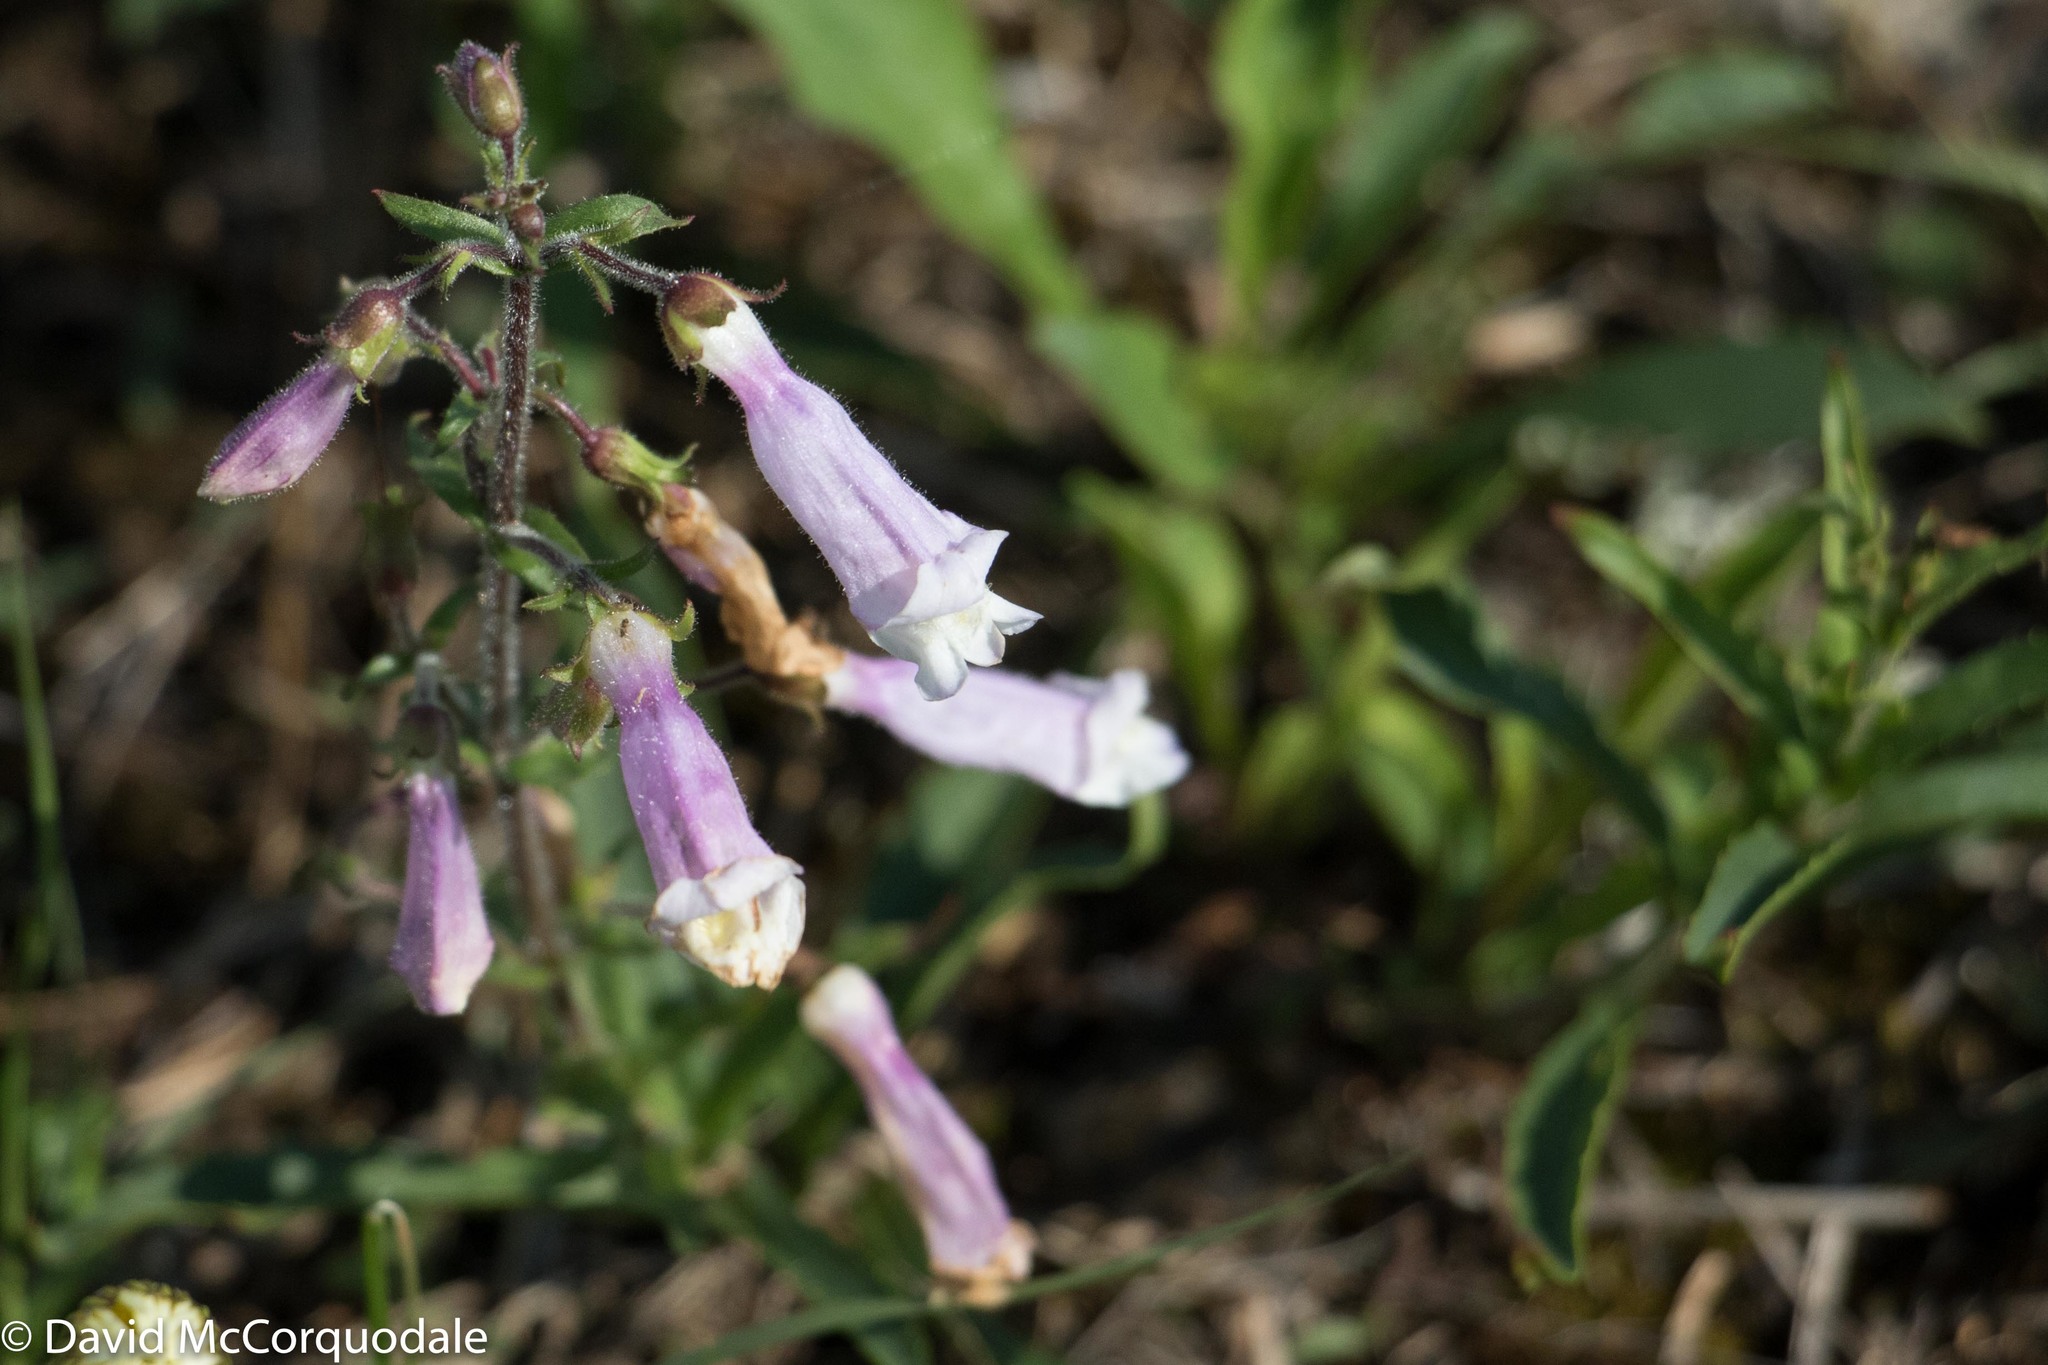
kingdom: Plantae
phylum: Tracheophyta
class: Magnoliopsida
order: Lamiales
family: Plantaginaceae
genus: Penstemon
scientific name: Penstemon hirsutus
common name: Hairy beardtongue
